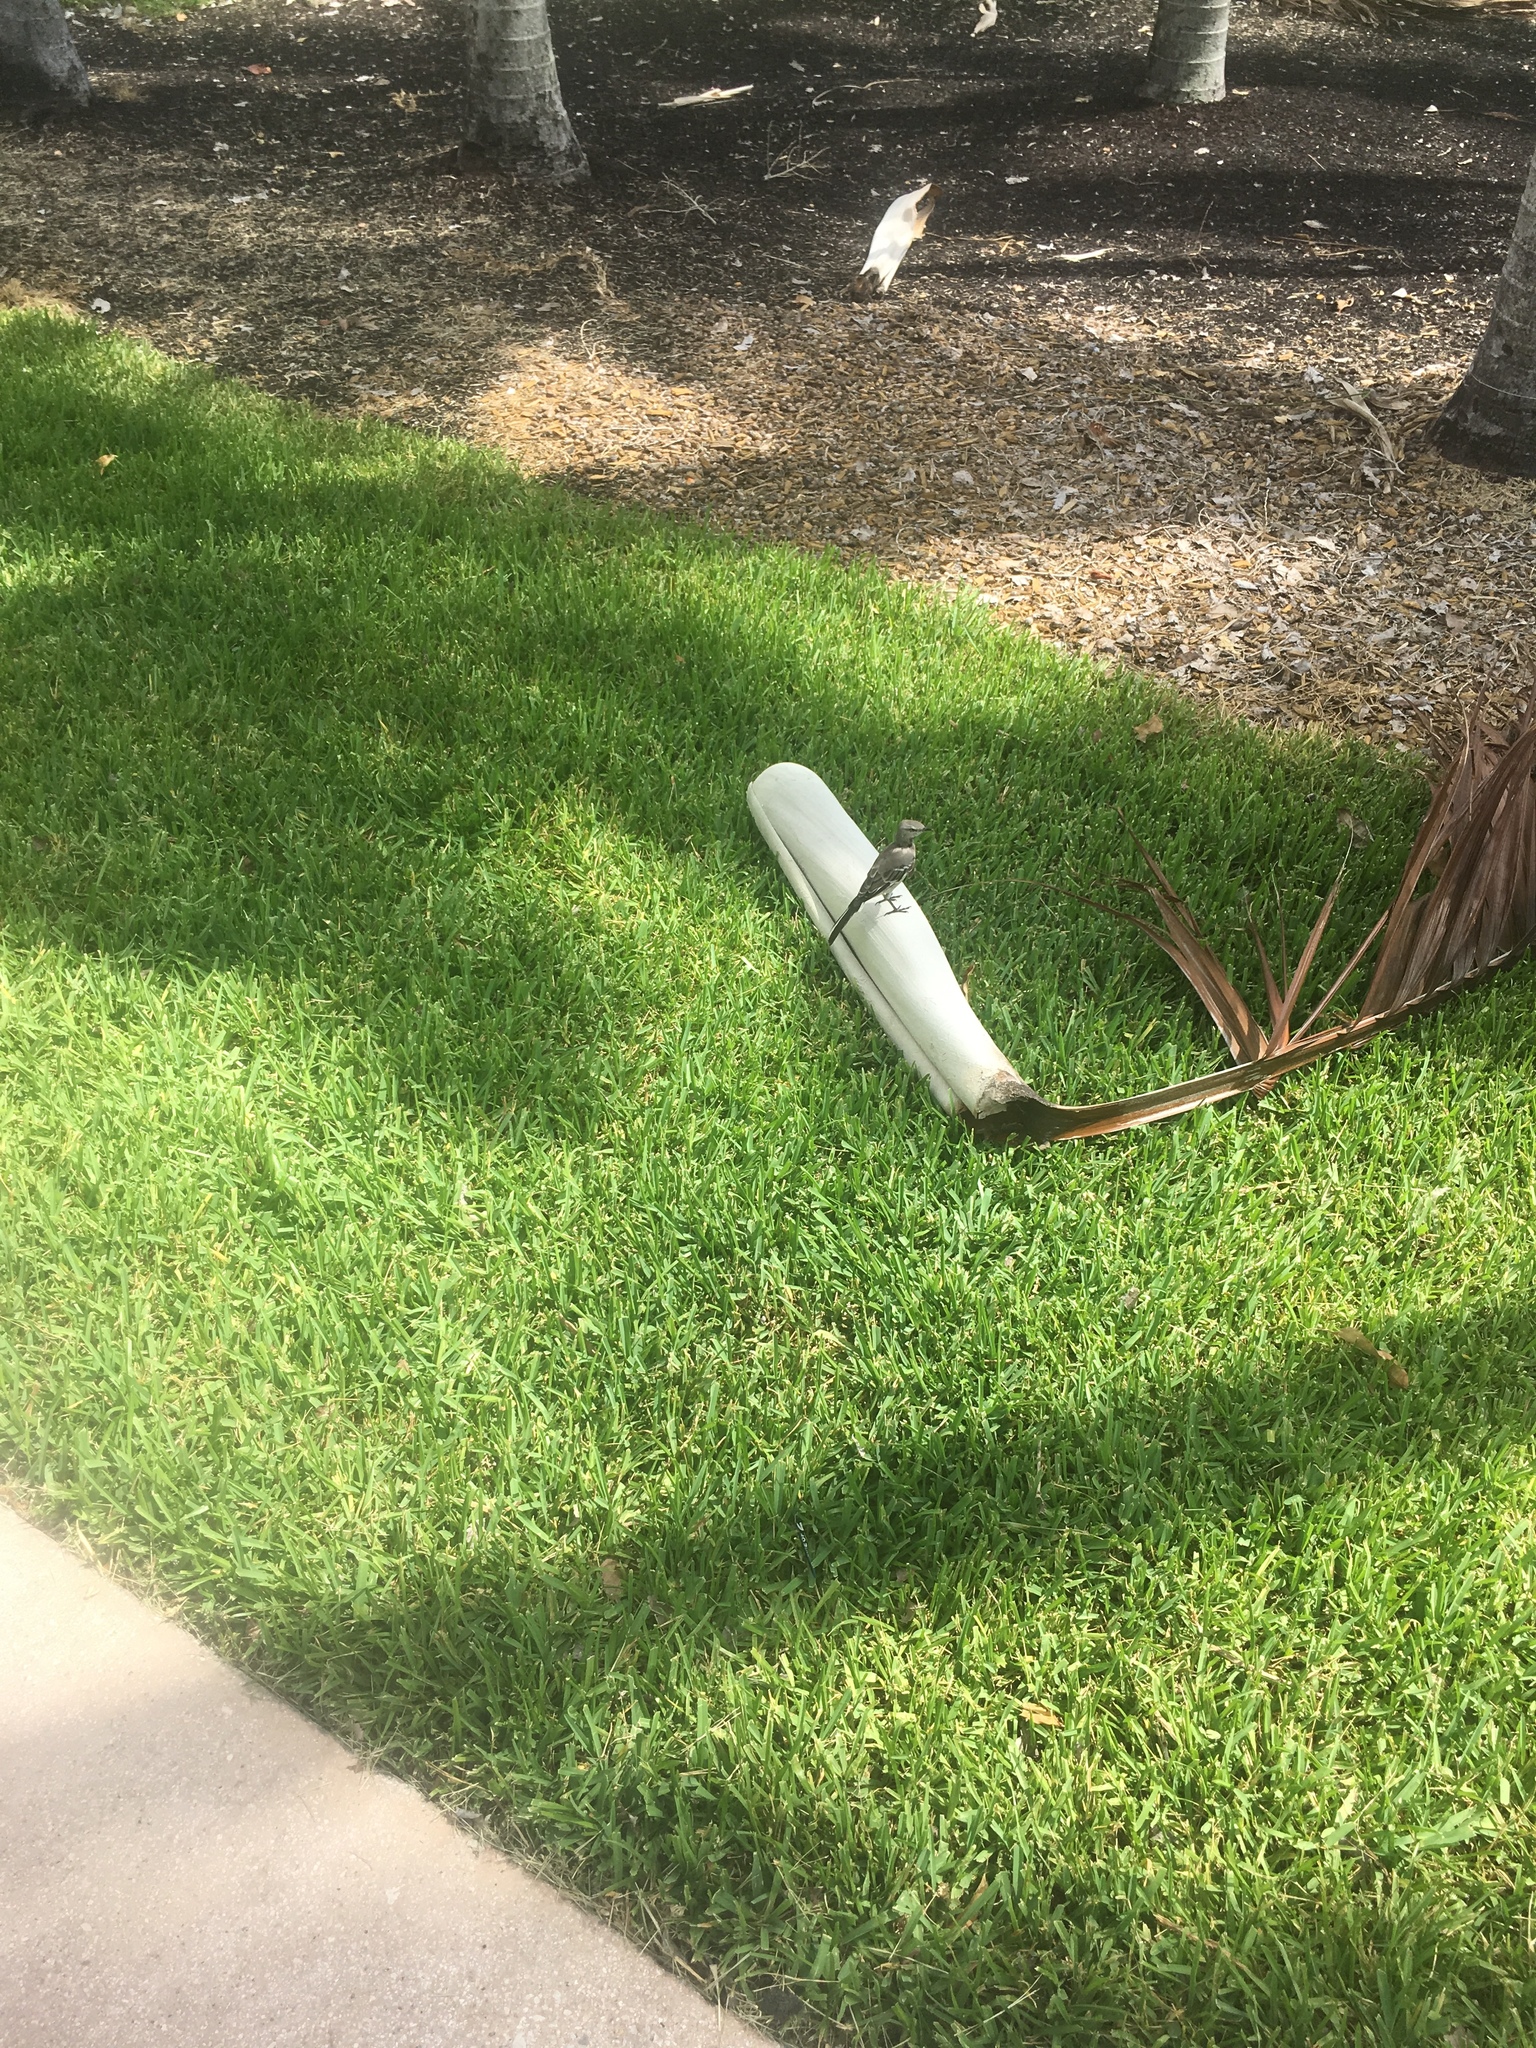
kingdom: Animalia
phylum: Chordata
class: Aves
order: Passeriformes
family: Mimidae
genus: Mimus
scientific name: Mimus polyglottos
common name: Northern mockingbird
